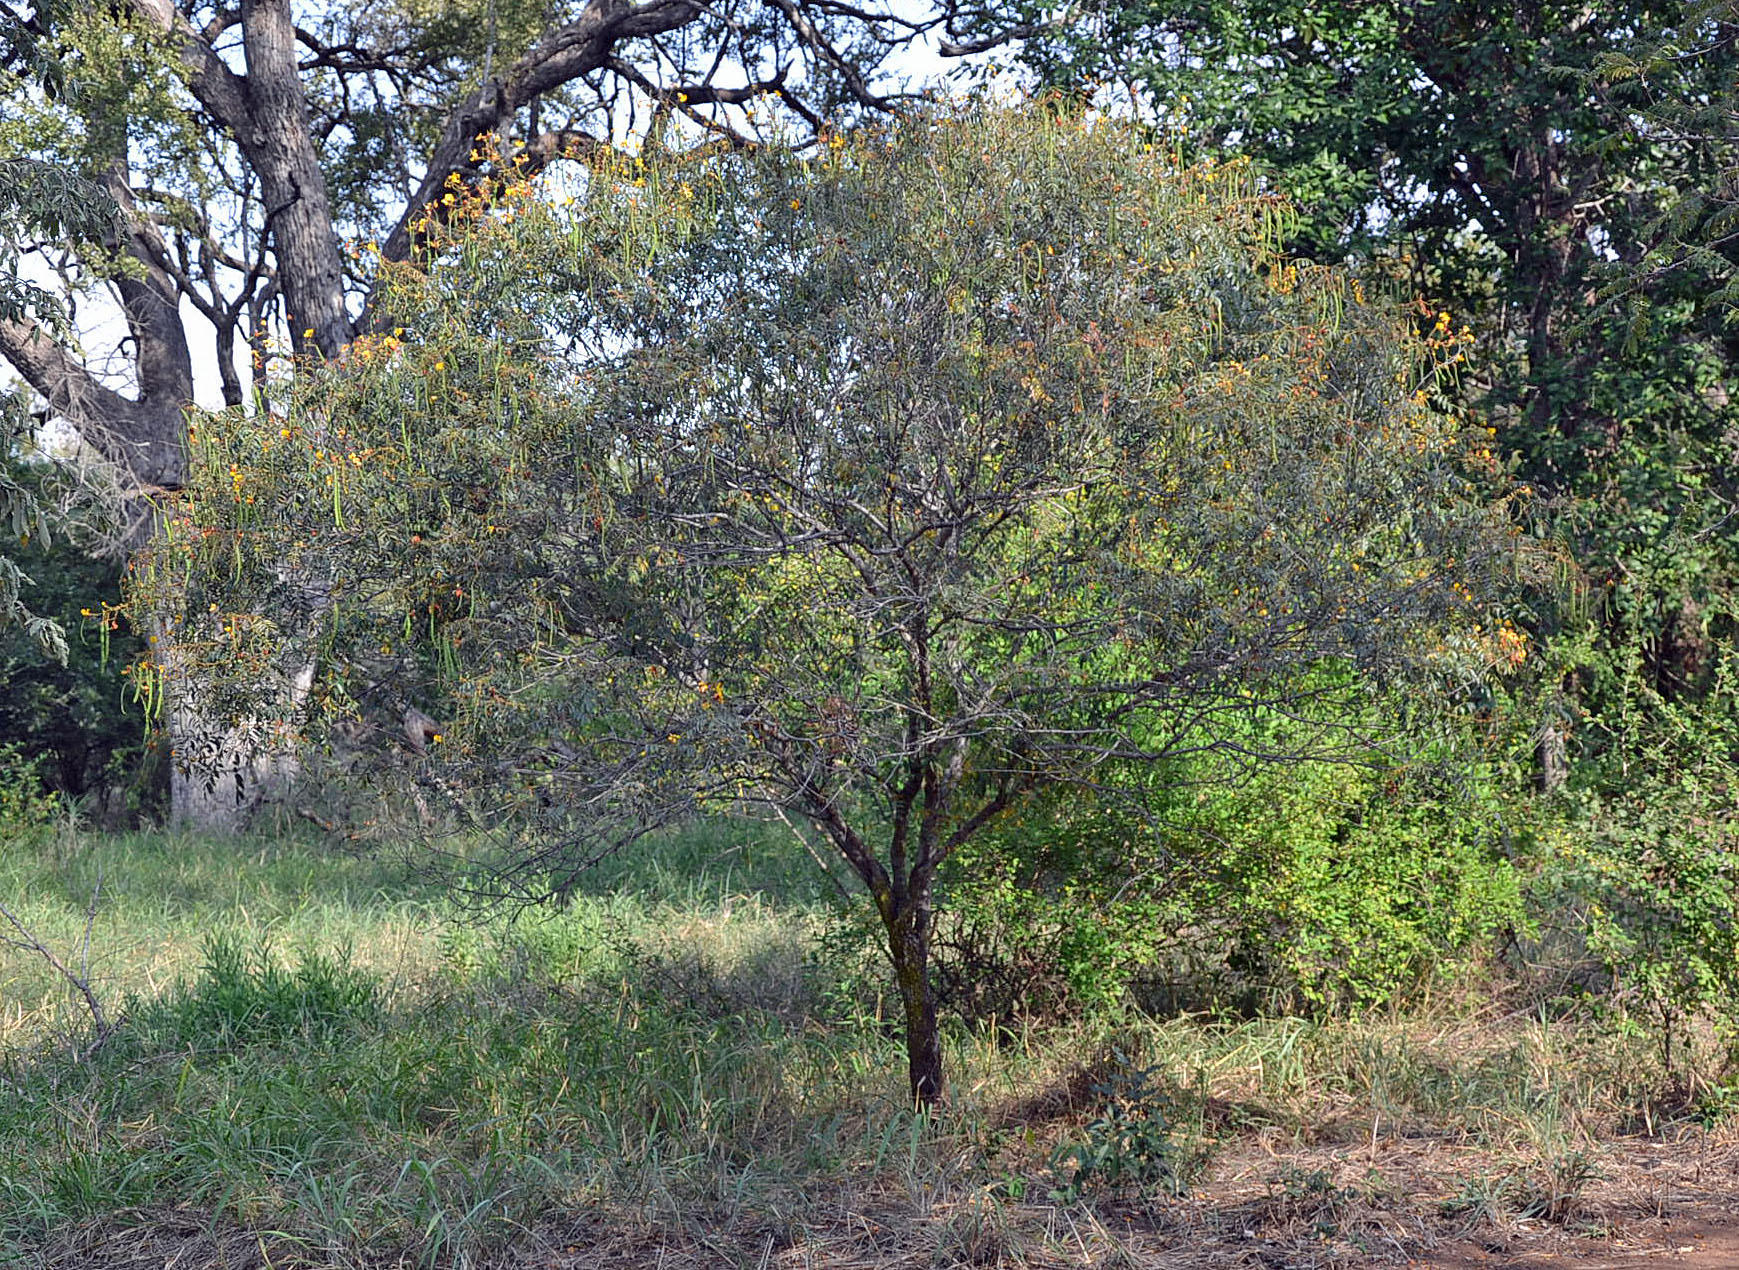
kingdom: Plantae
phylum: Tracheophyta
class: Magnoliopsida
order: Fabales
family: Fabaceae
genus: Senna
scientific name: Senna petersiana
